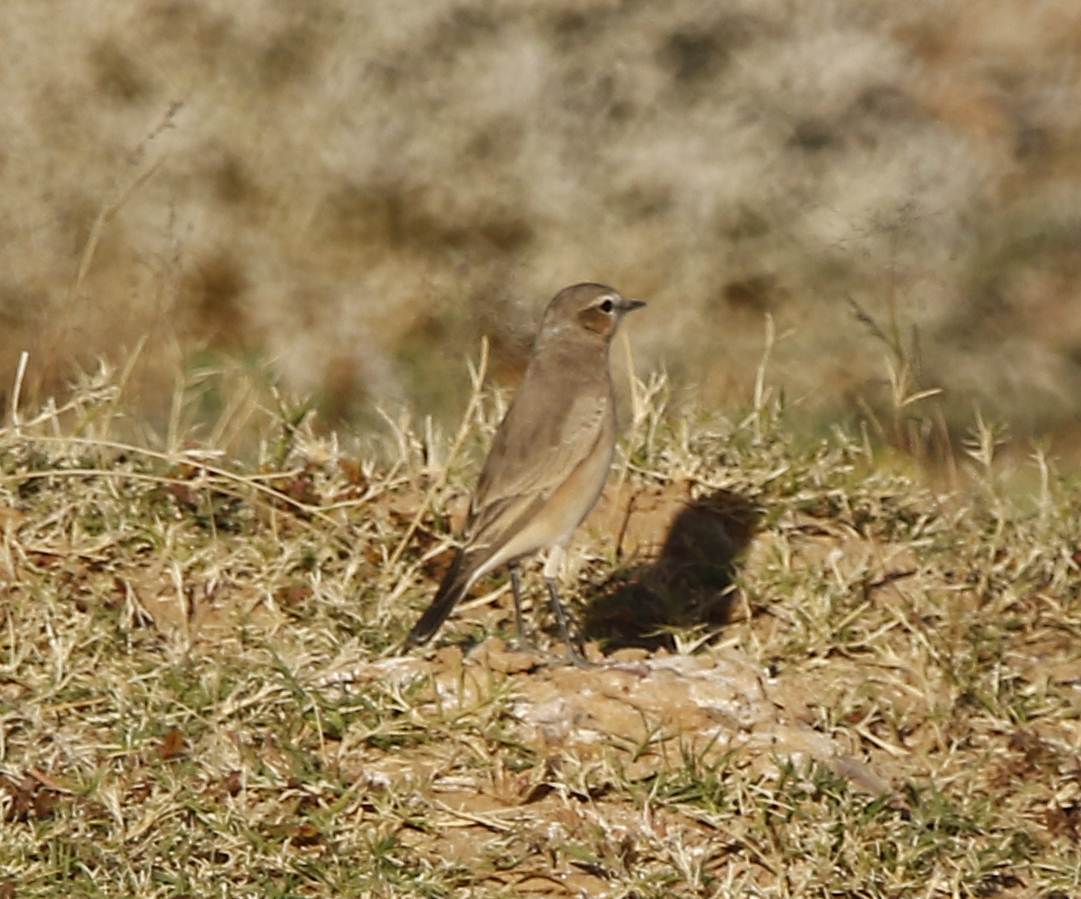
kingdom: Animalia
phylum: Chordata
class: Aves
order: Passeriformes
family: Muscicapidae
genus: Oenanthe
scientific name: Oenanthe isabellina
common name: Isabelline wheatear
